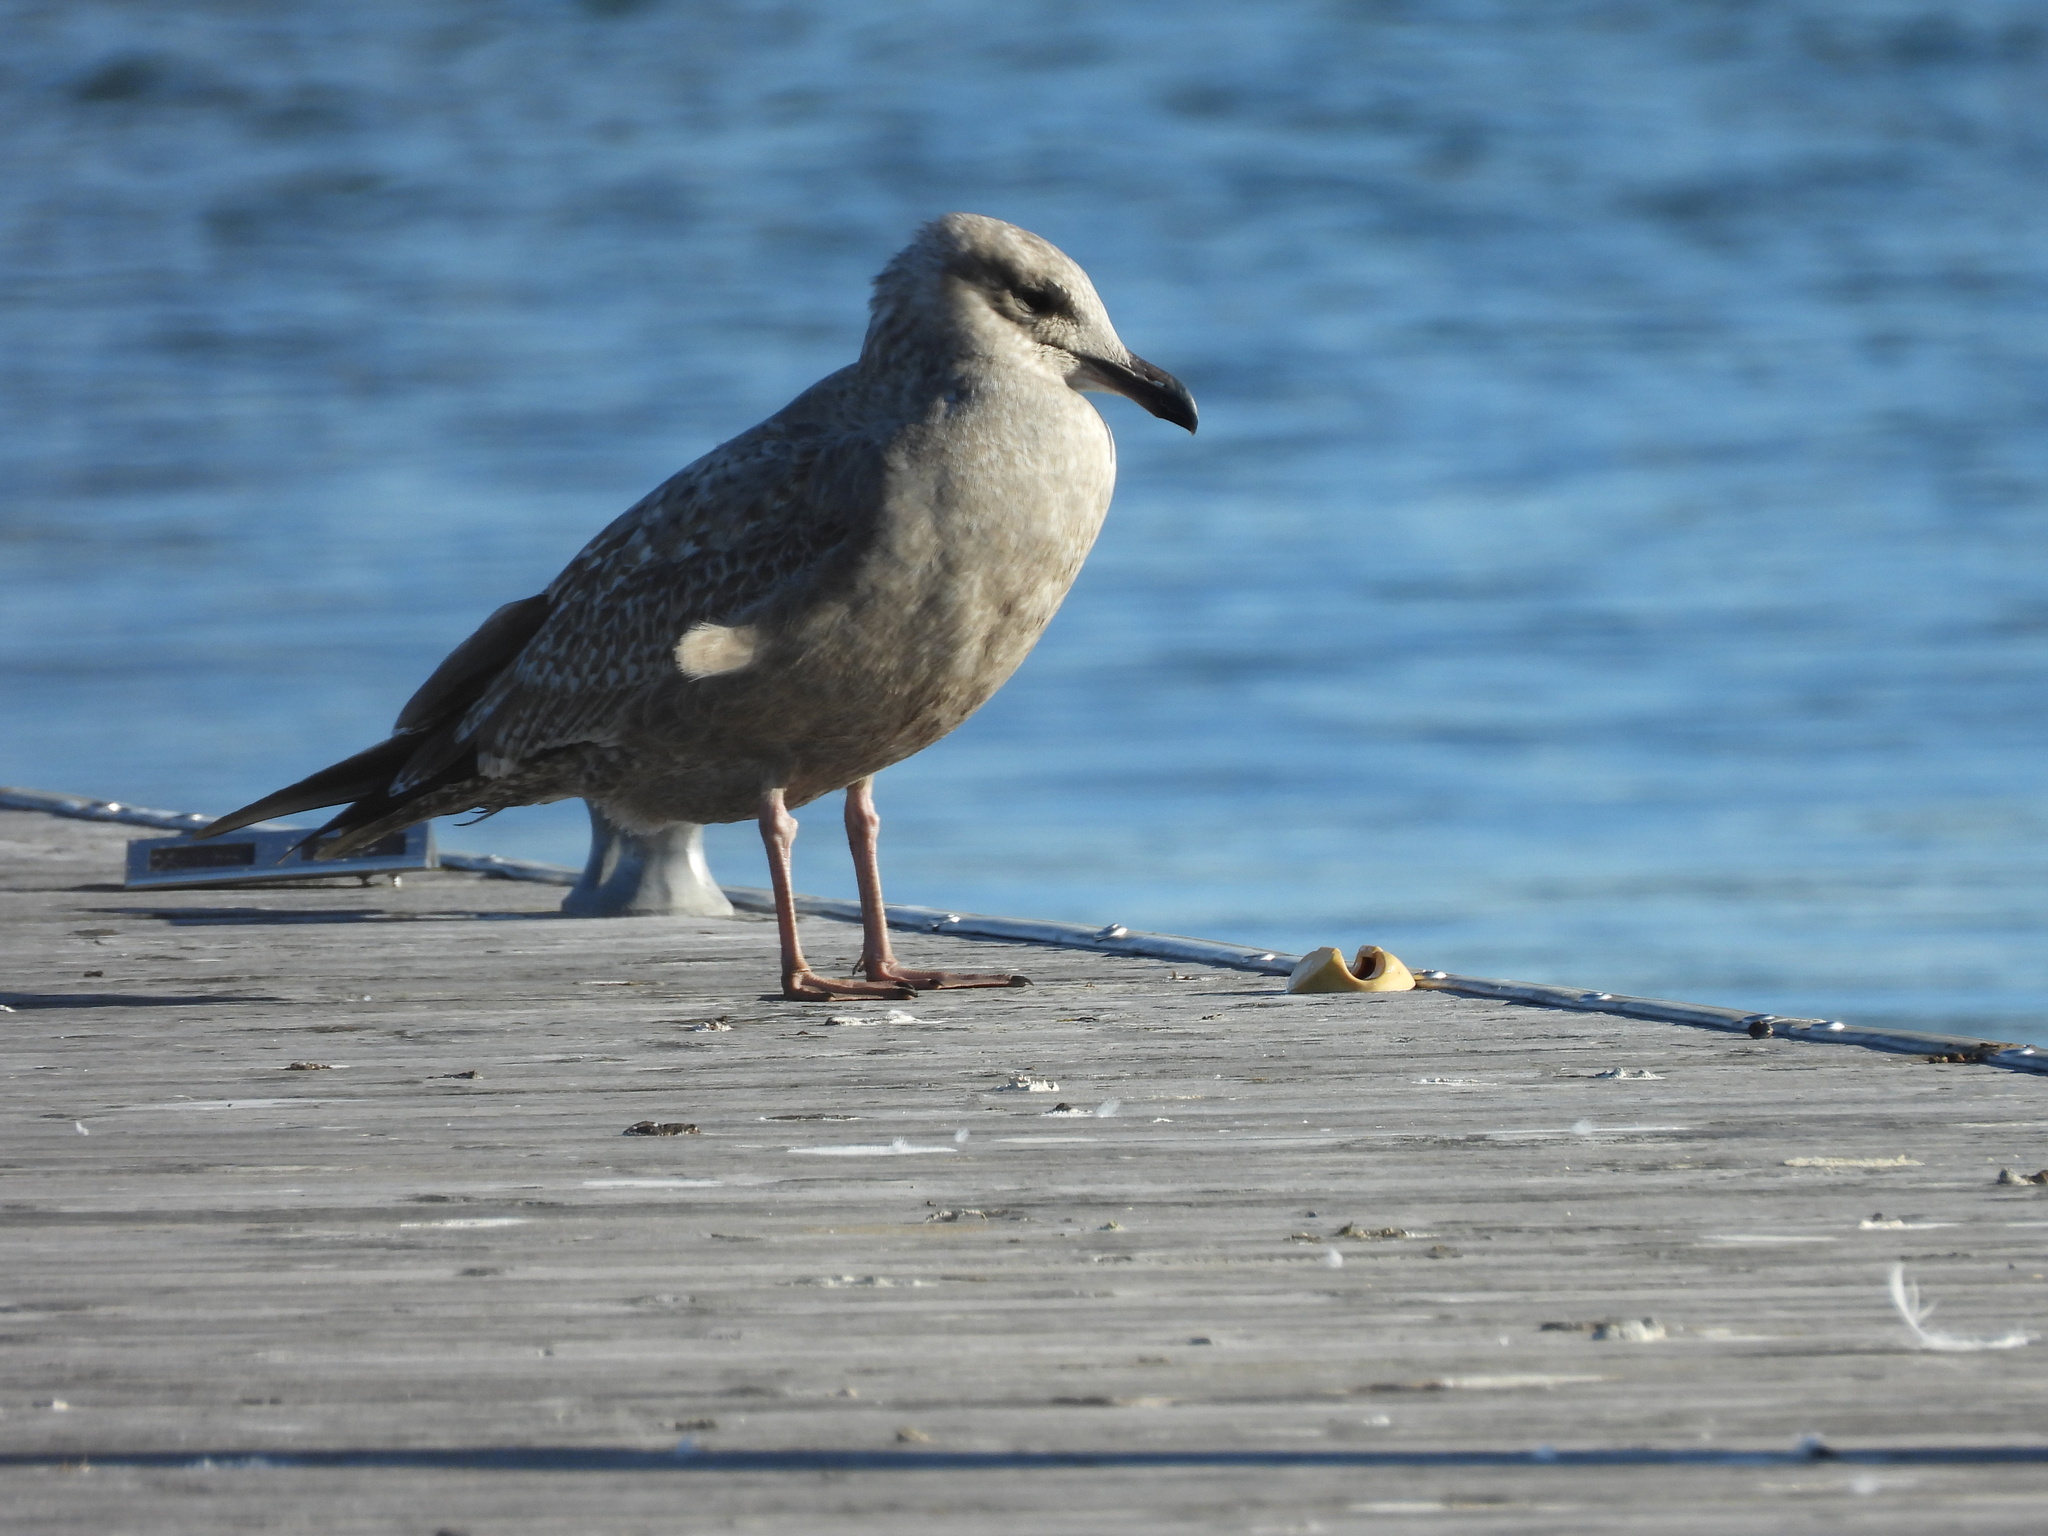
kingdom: Animalia
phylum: Chordata
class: Aves
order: Charadriiformes
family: Laridae
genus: Larus
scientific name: Larus argentatus
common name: Herring gull
